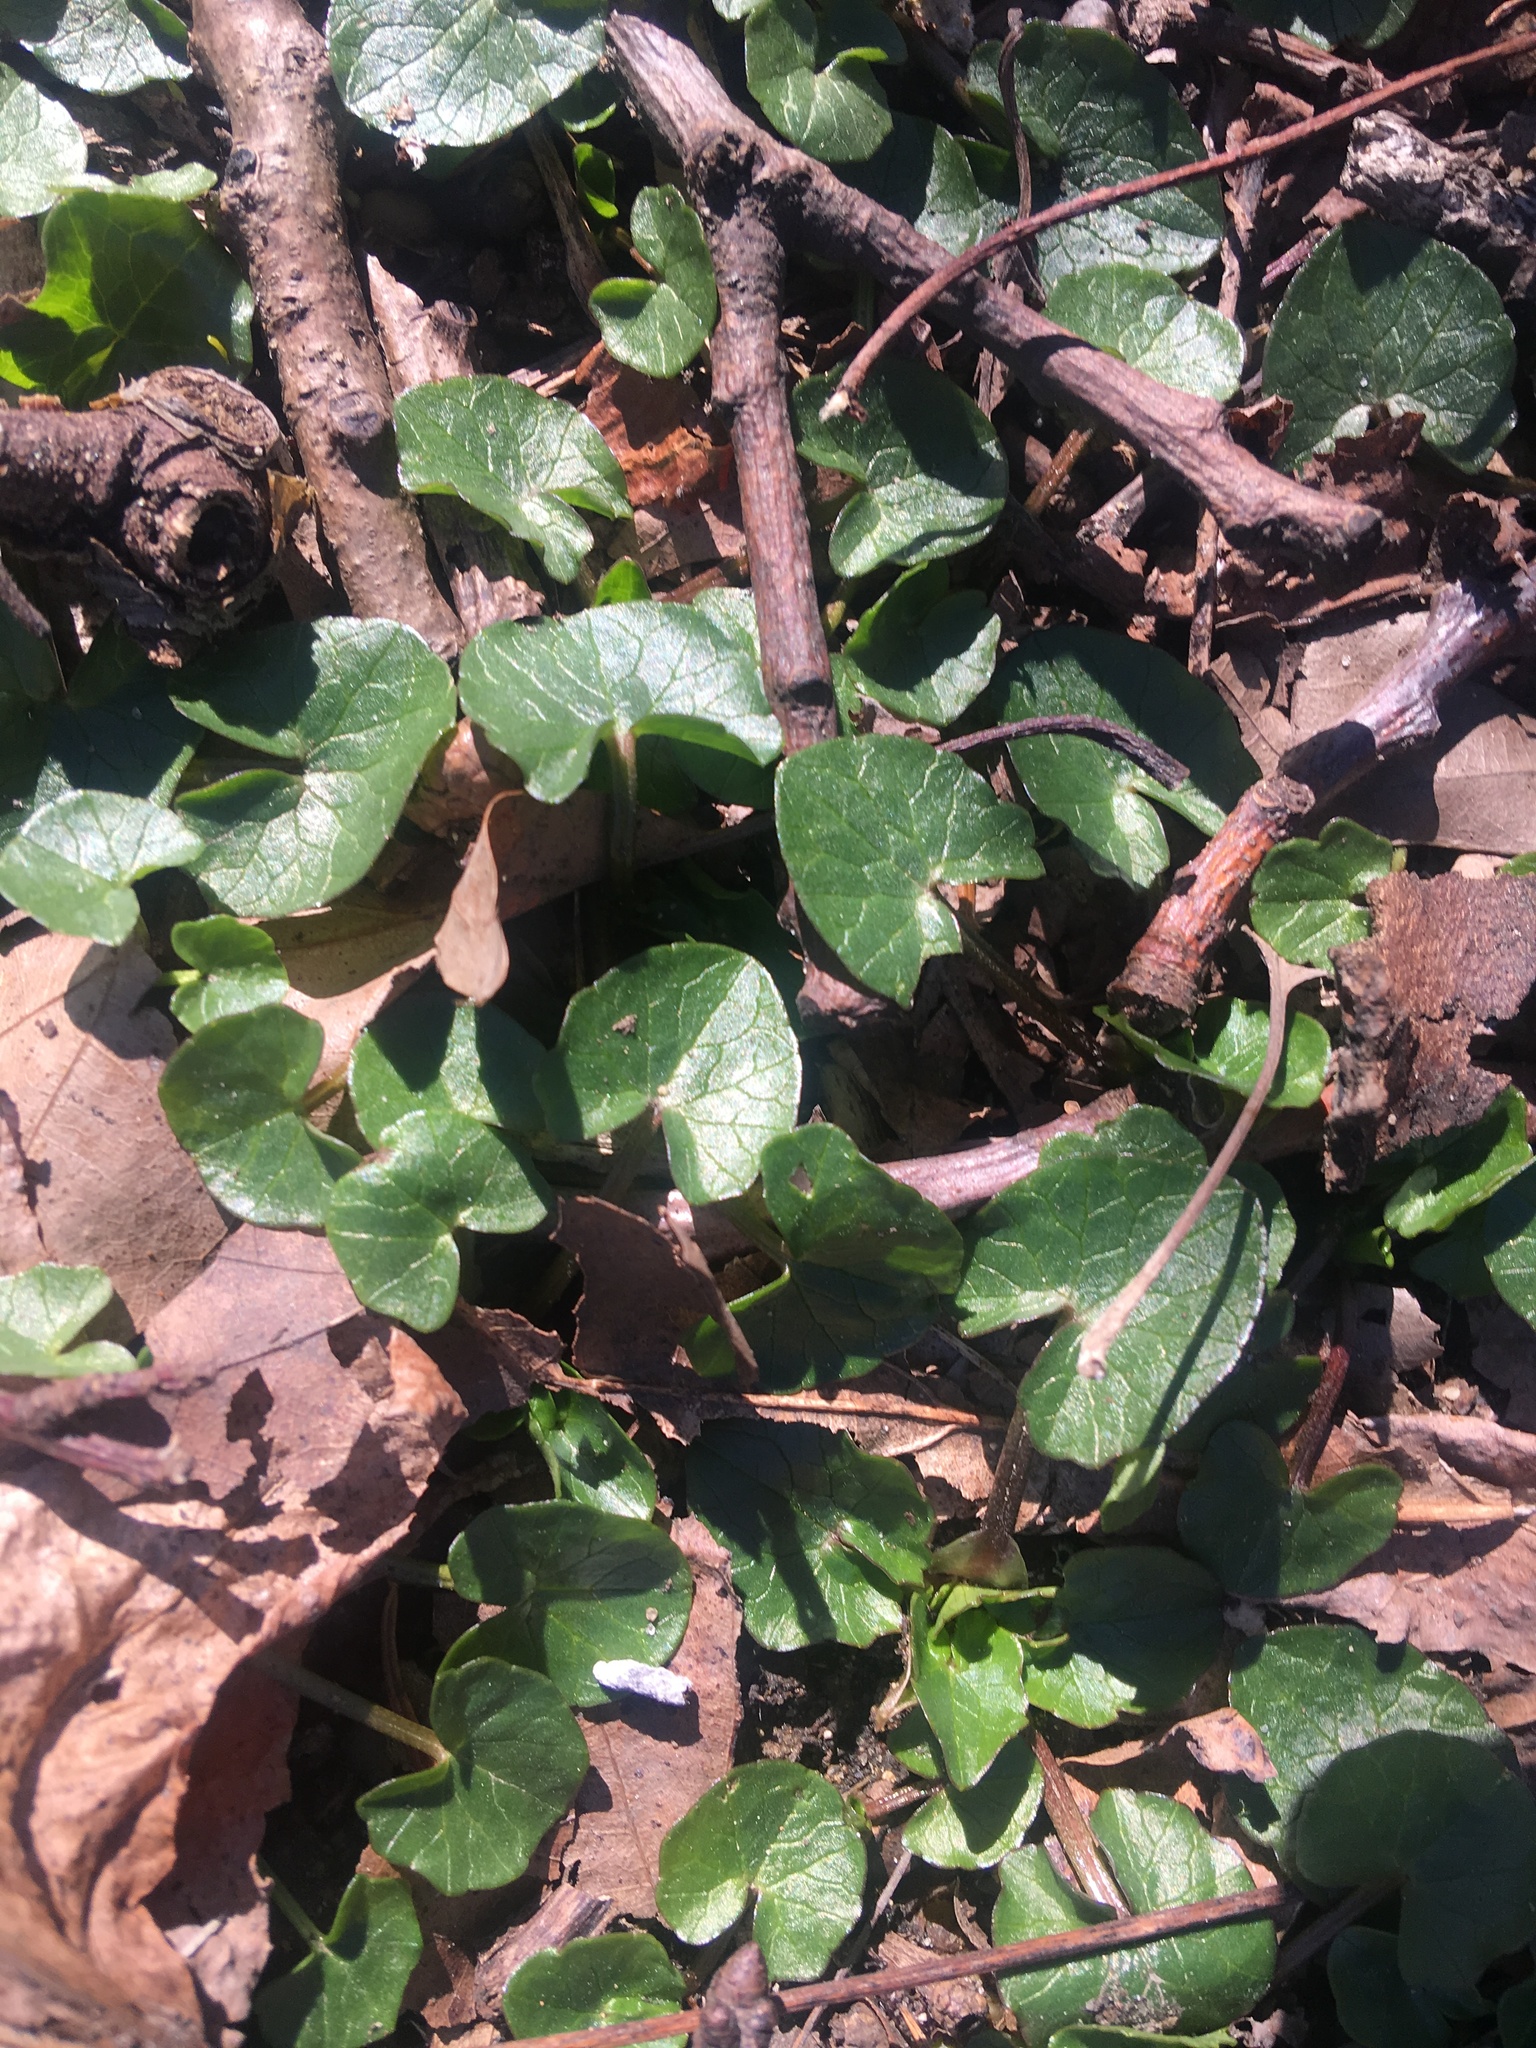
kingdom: Plantae
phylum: Tracheophyta
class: Magnoliopsida
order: Ranunculales
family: Ranunculaceae
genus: Ficaria
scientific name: Ficaria verna
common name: Lesser celandine
